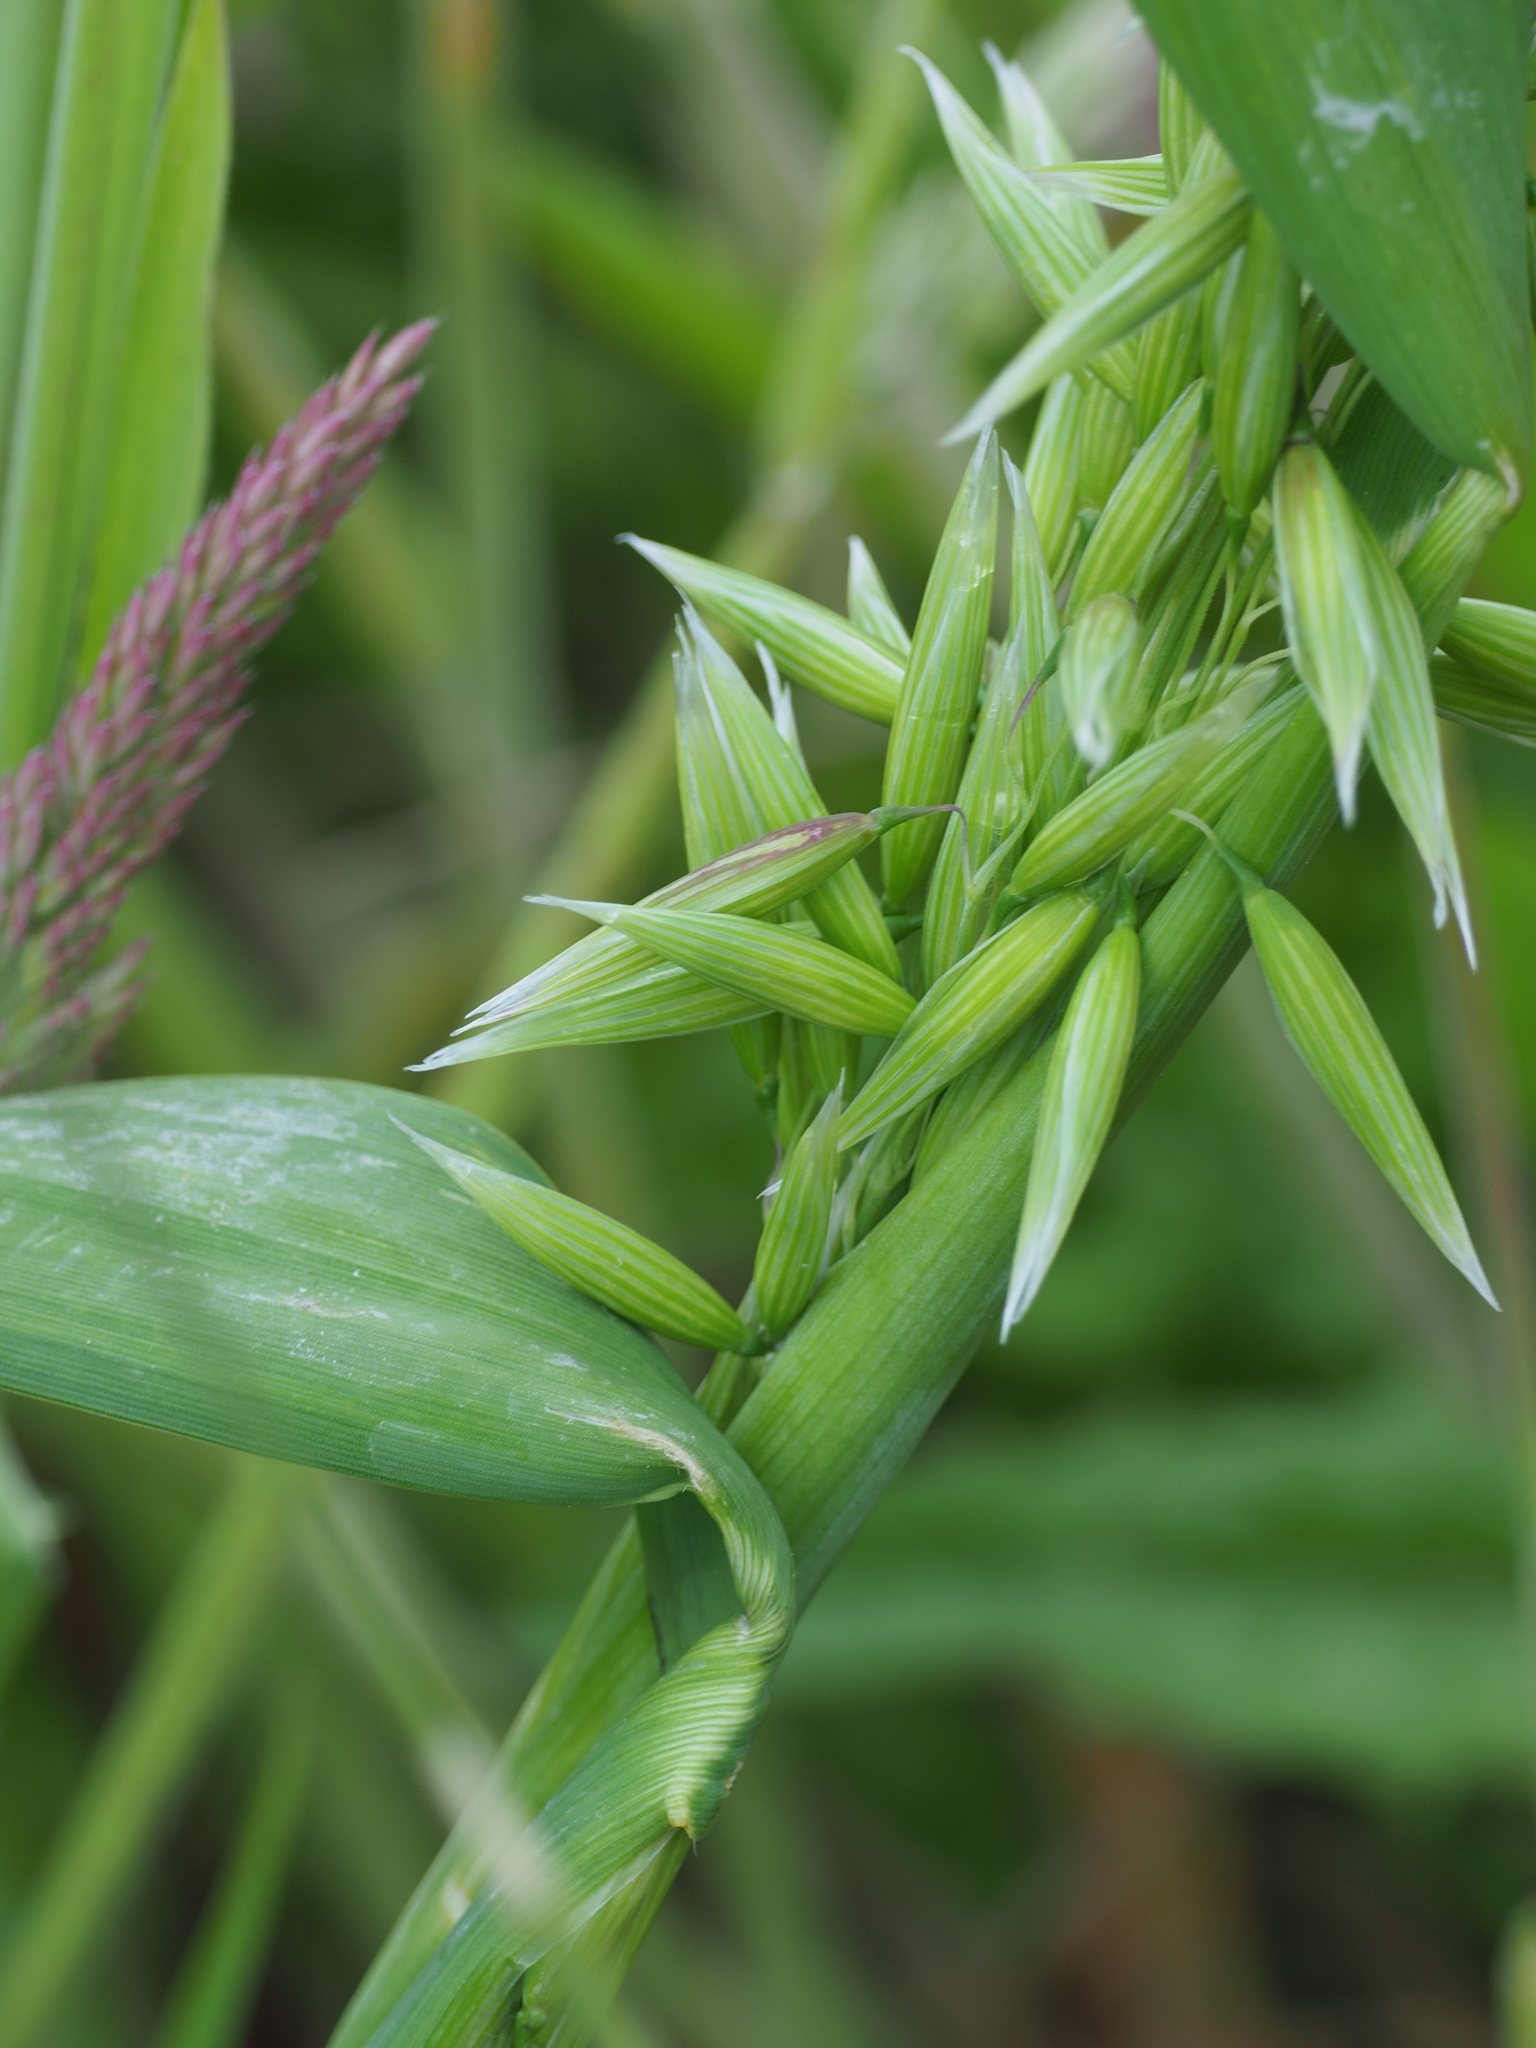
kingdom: Plantae
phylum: Tracheophyta
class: Liliopsida
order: Poales
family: Poaceae
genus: Avena
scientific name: Avena sativa
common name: Oat
